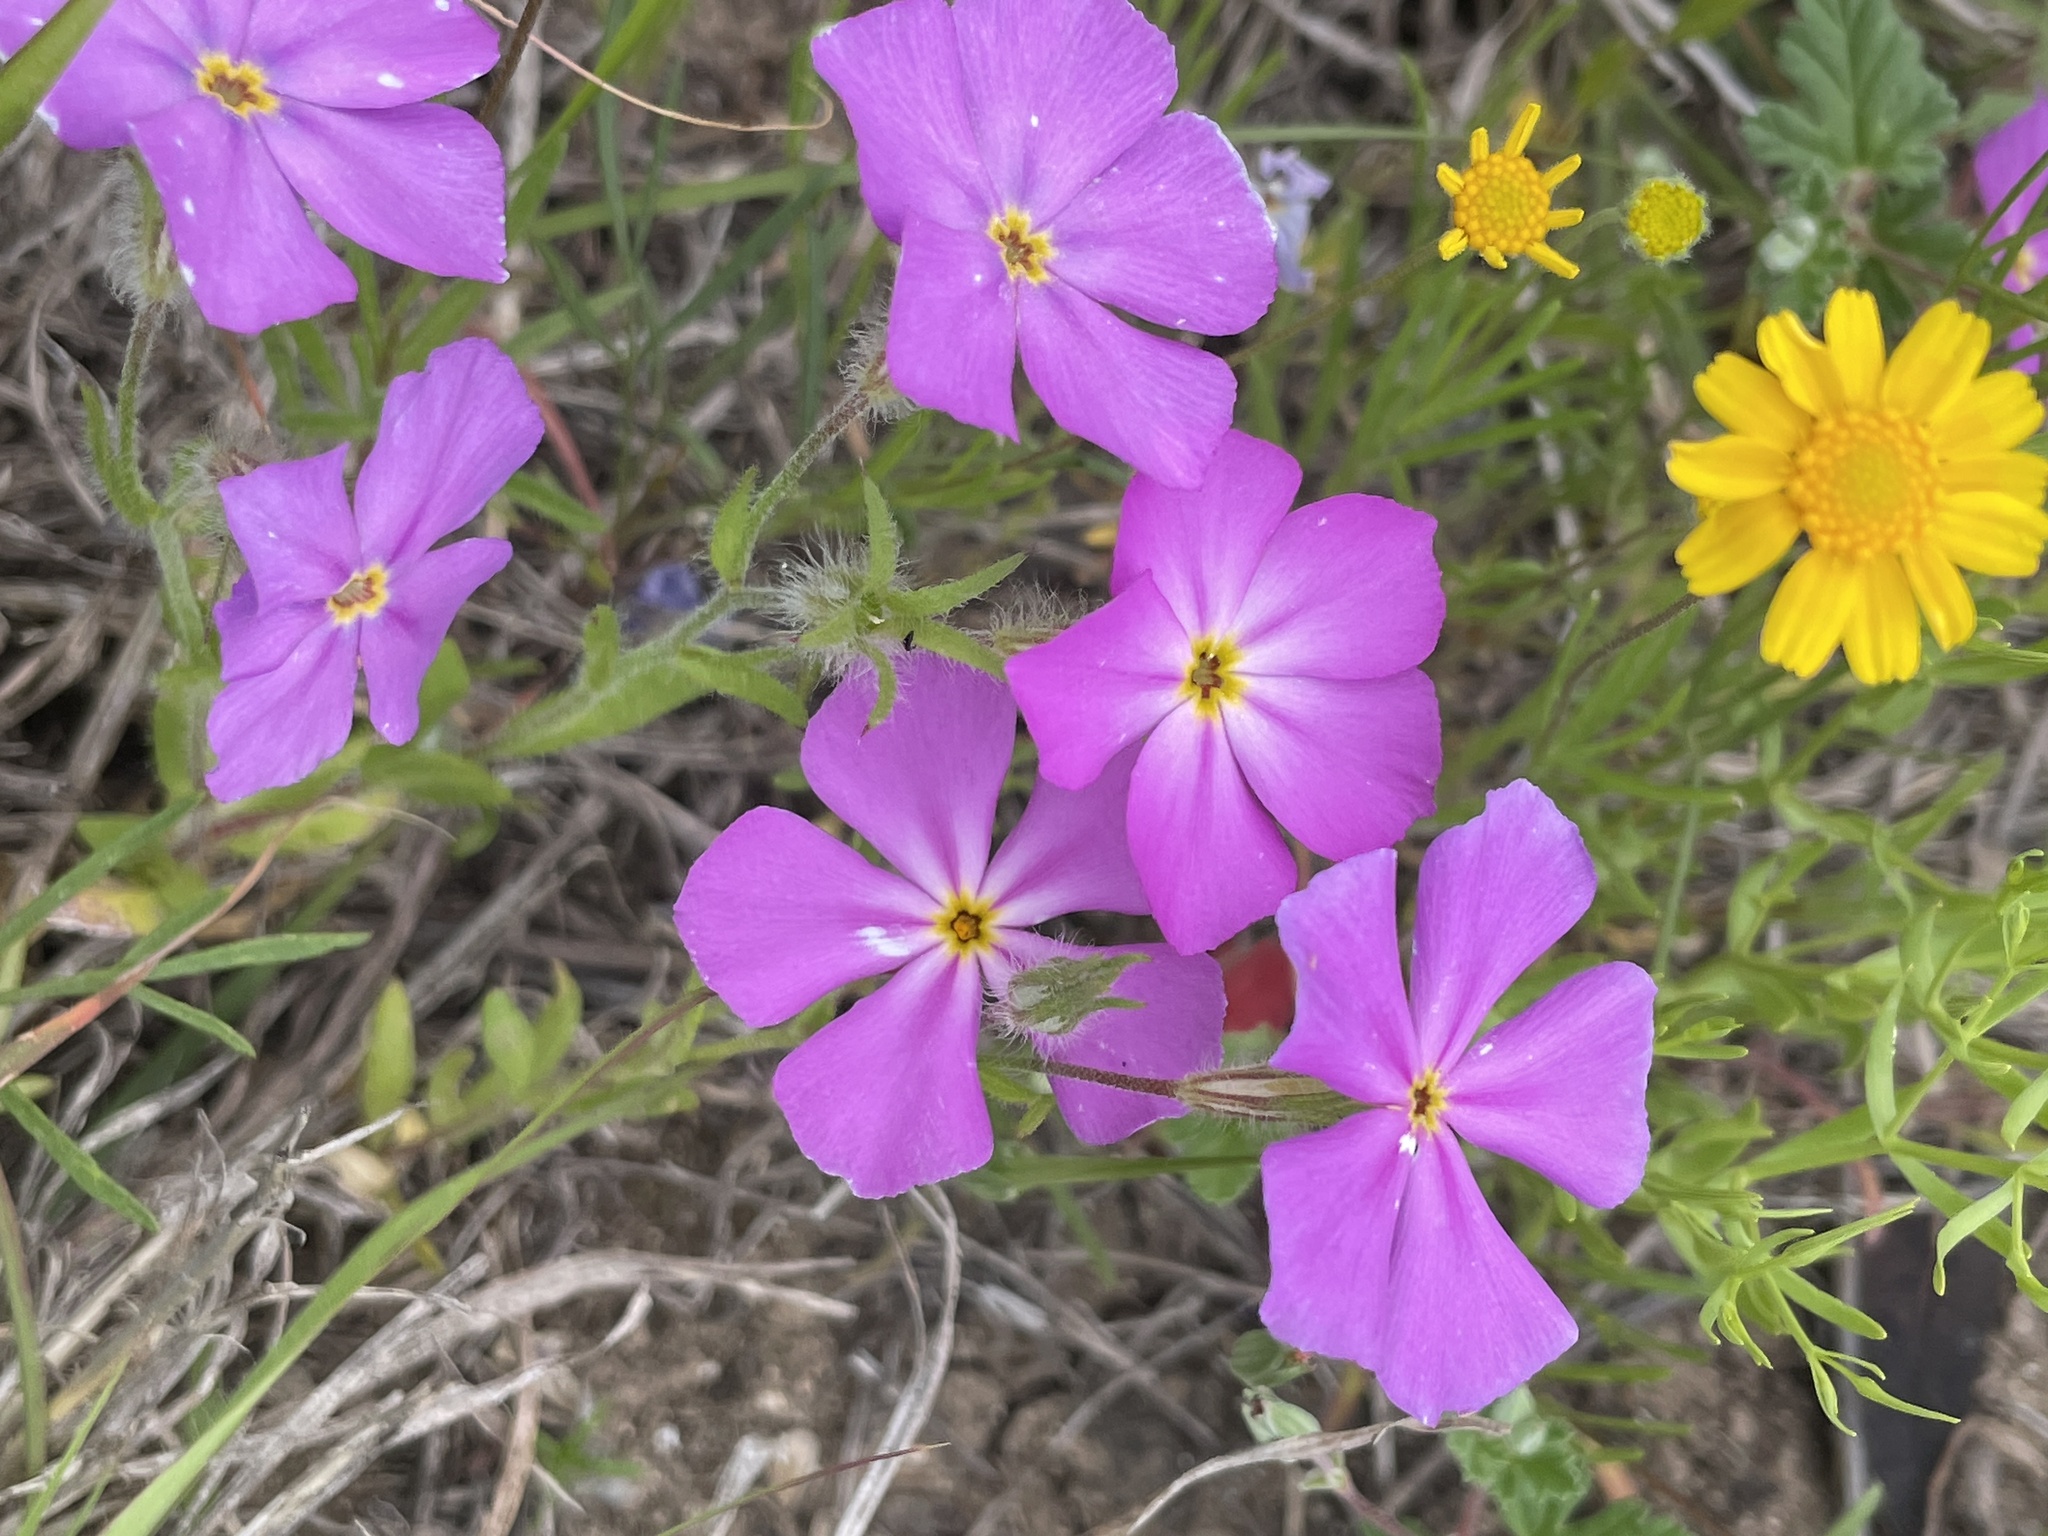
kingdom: Plantae
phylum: Tracheophyta
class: Magnoliopsida
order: Ericales
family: Polemoniaceae
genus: Phlox
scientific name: Phlox roemeriana
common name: Roemer's phlox
